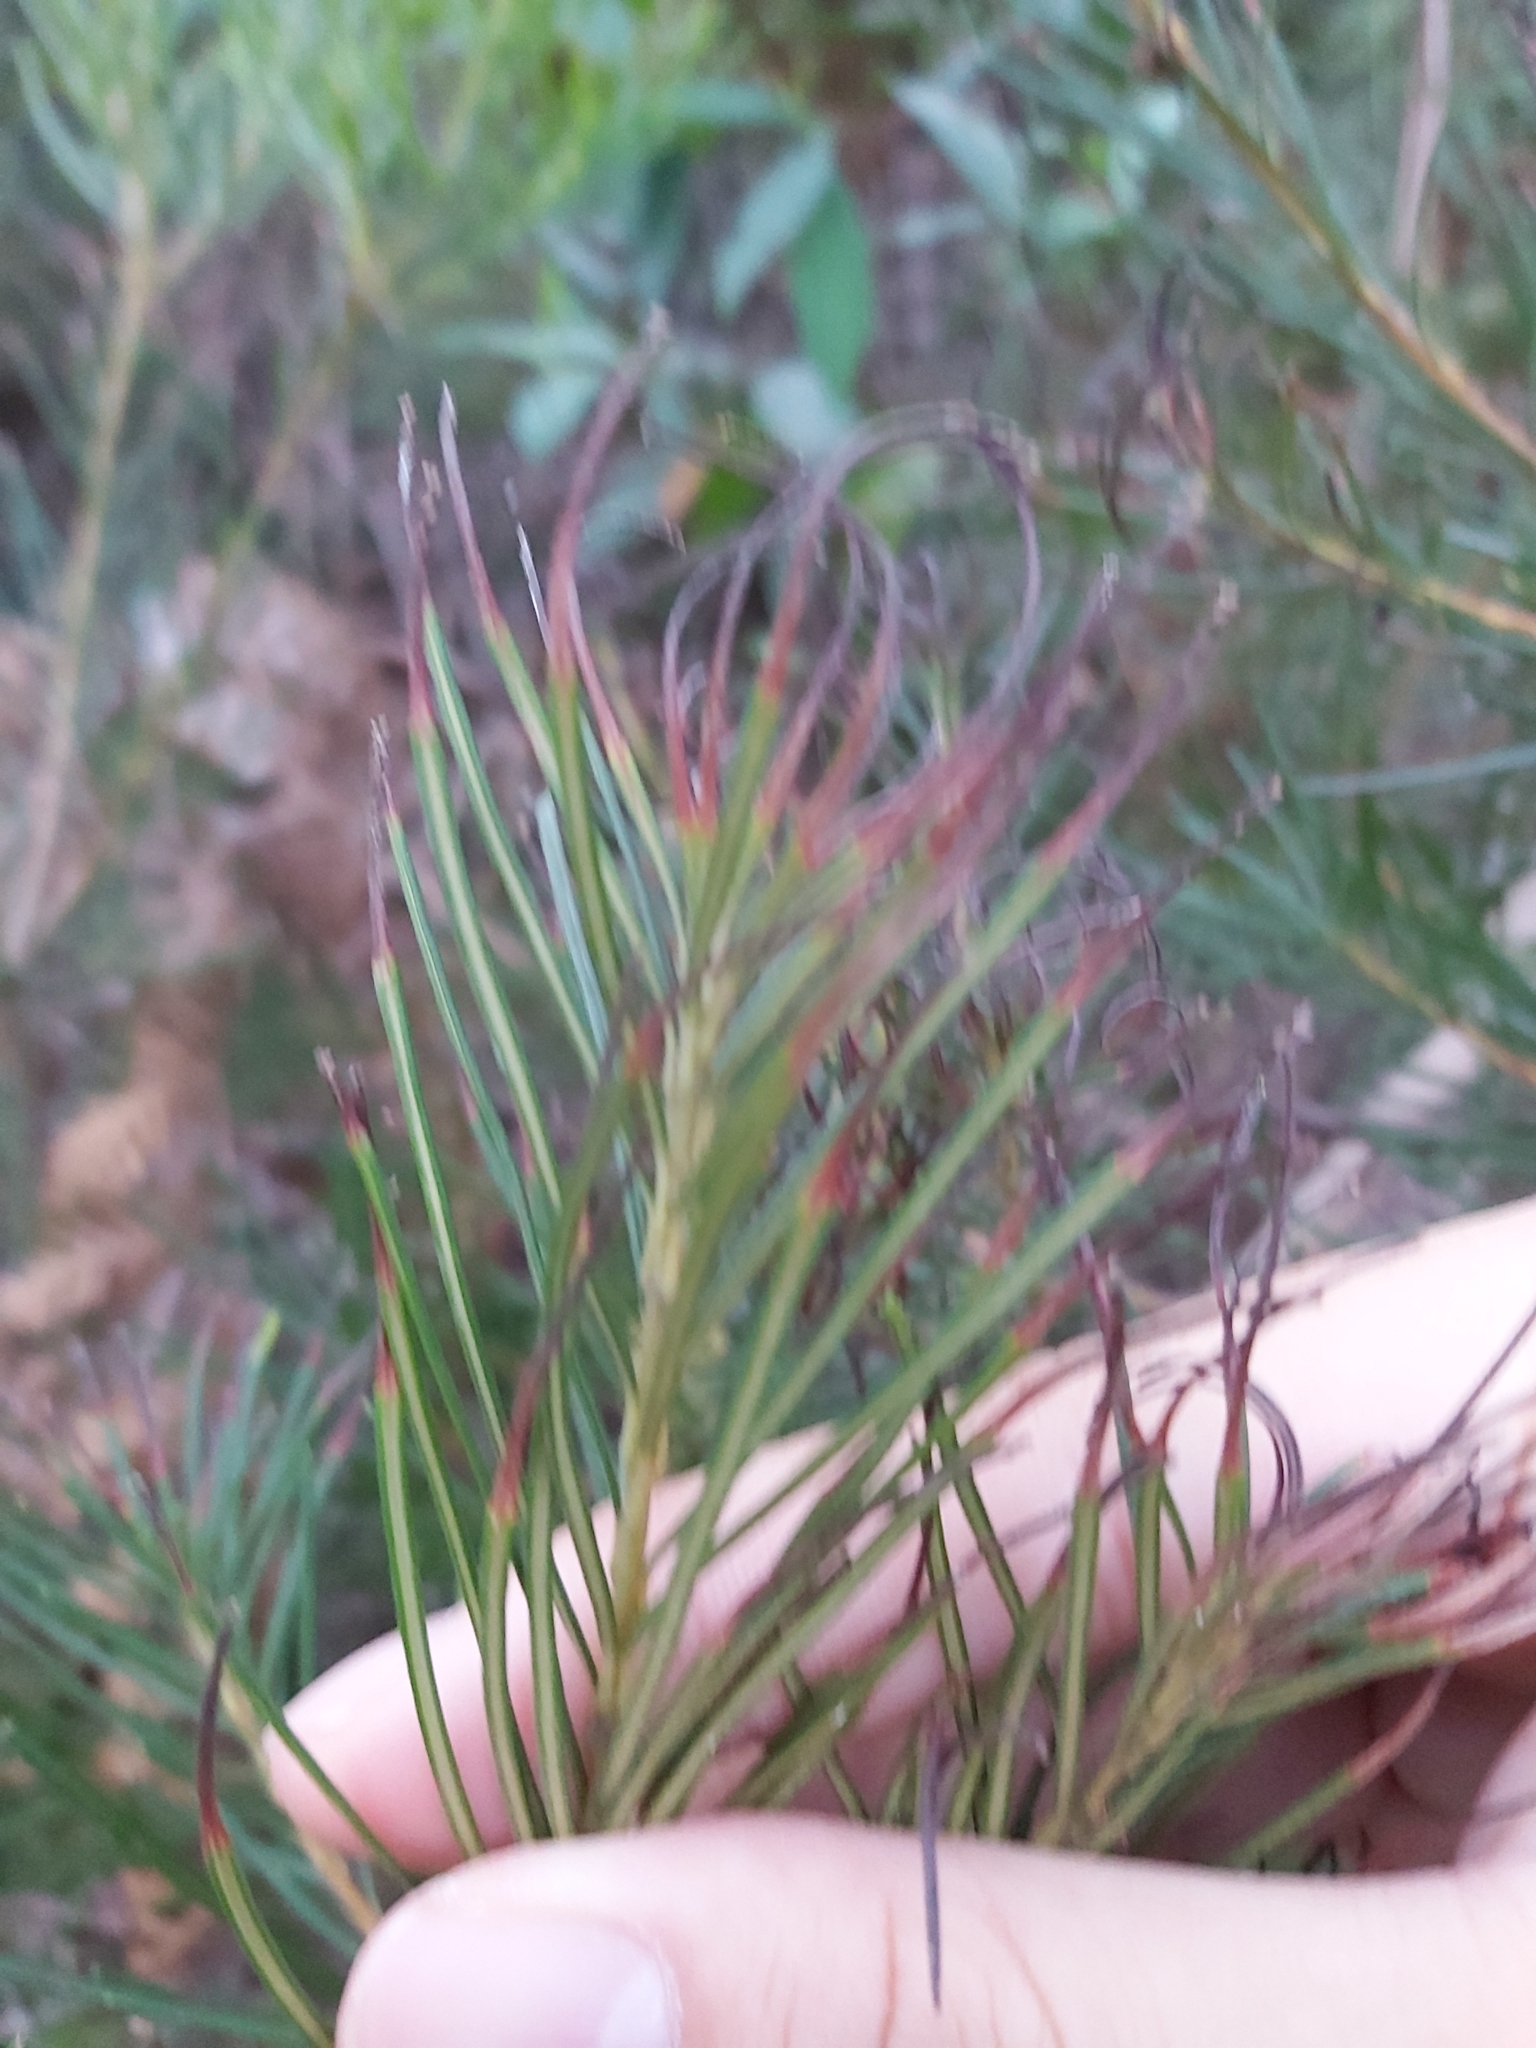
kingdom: Plantae
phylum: Tracheophyta
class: Magnoliopsida
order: Proteales
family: Proteaceae
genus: Banksia
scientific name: Banksia spinulosa
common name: Hairpin banksia
